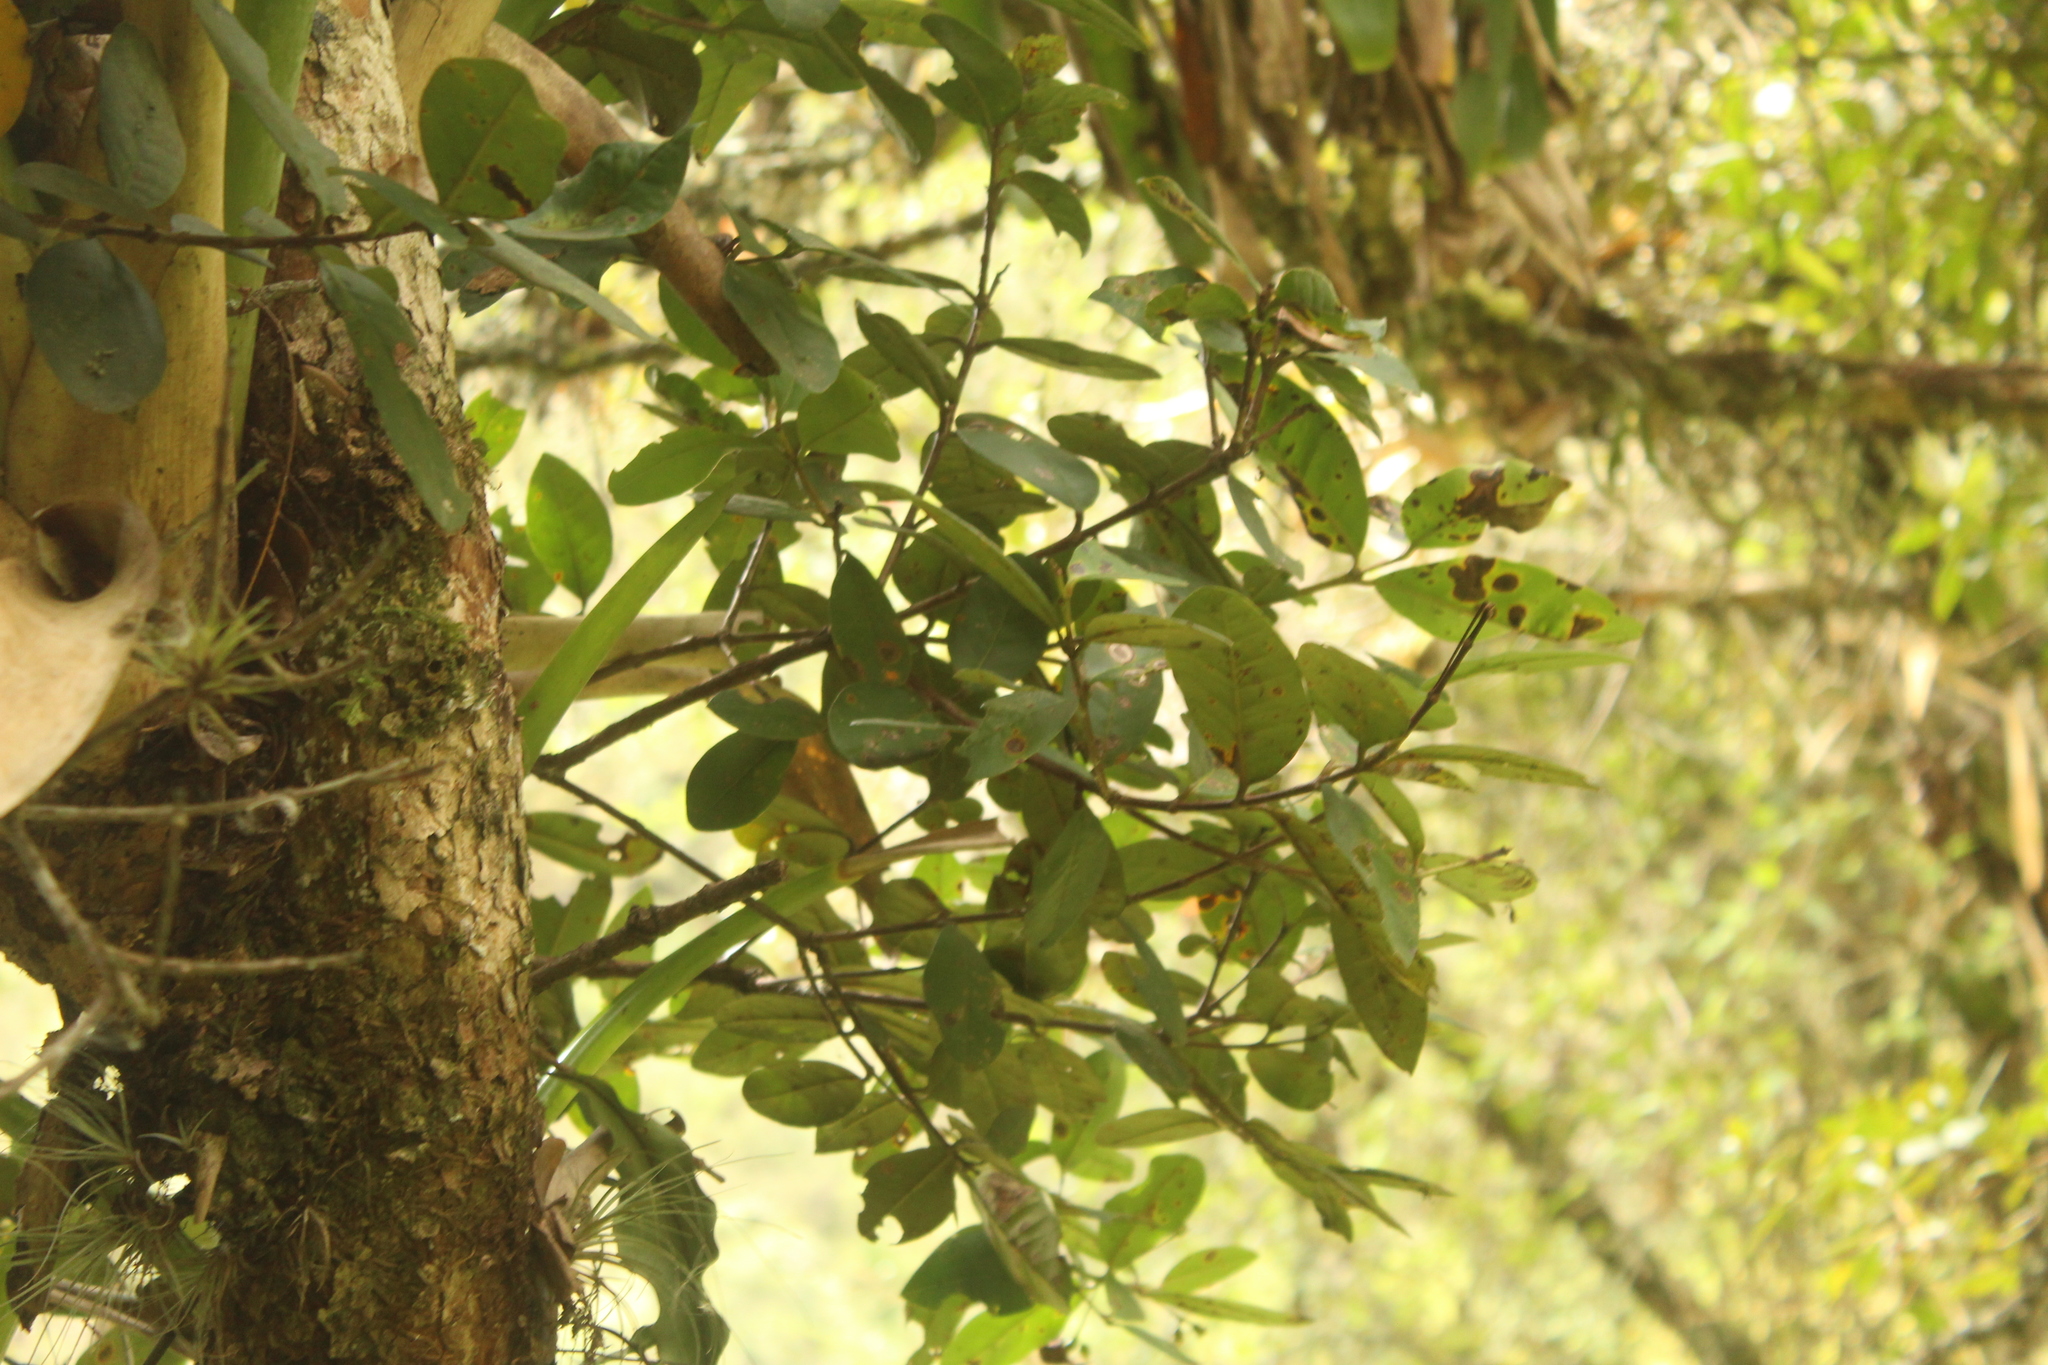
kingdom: Plantae
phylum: Tracheophyta
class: Magnoliopsida
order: Myrtales
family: Myrtaceae
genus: Myrcianthes
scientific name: Myrcianthes rhopaloides
